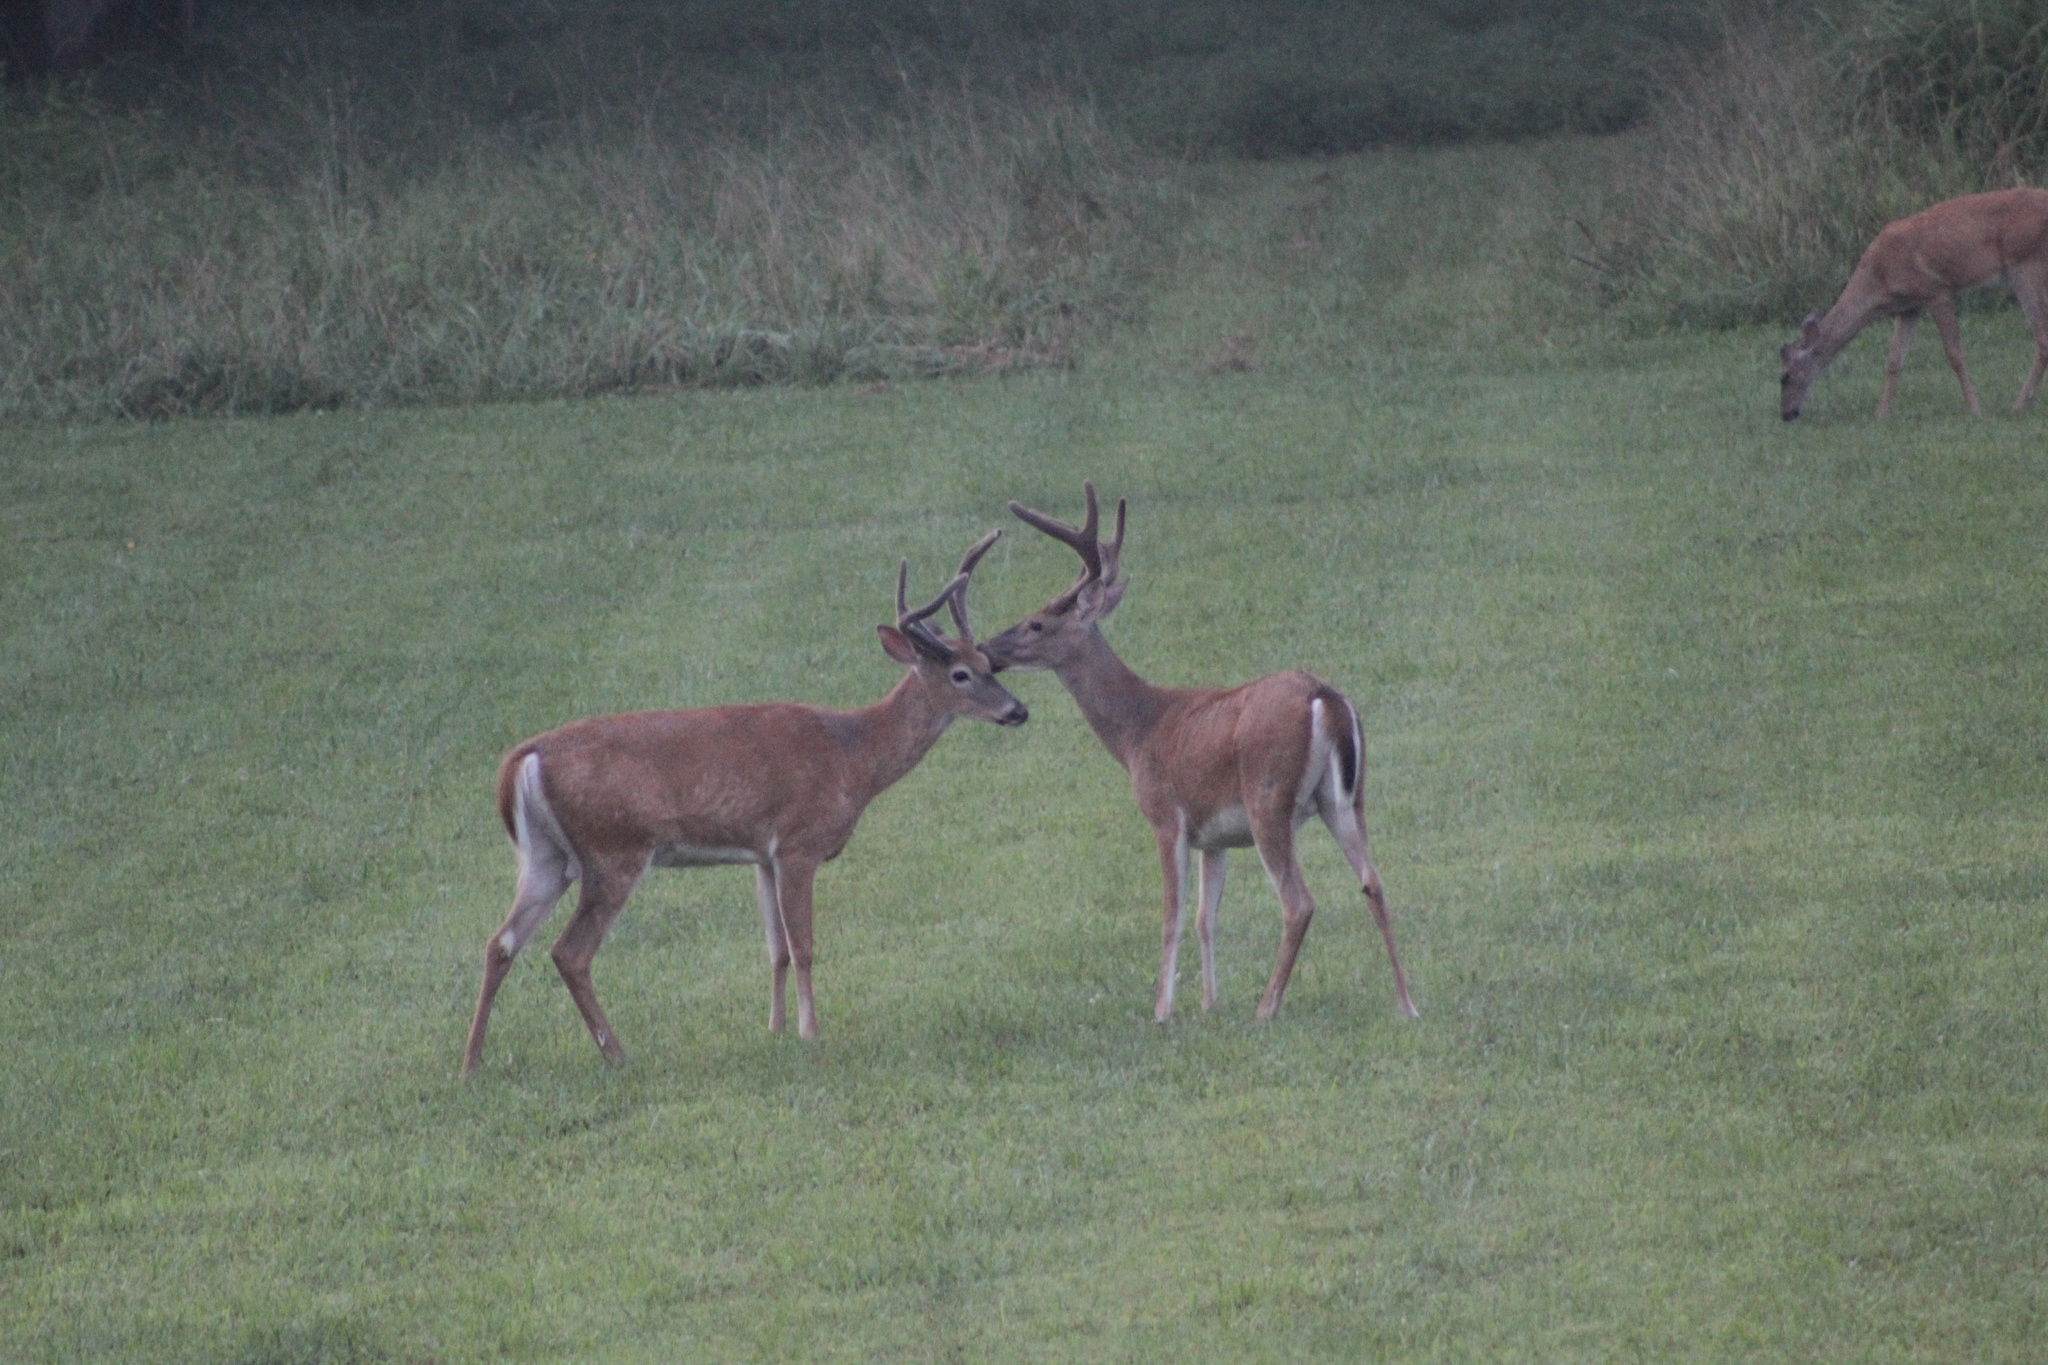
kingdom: Animalia
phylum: Chordata
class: Mammalia
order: Artiodactyla
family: Cervidae
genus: Odocoileus
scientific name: Odocoileus virginianus
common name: White-tailed deer
